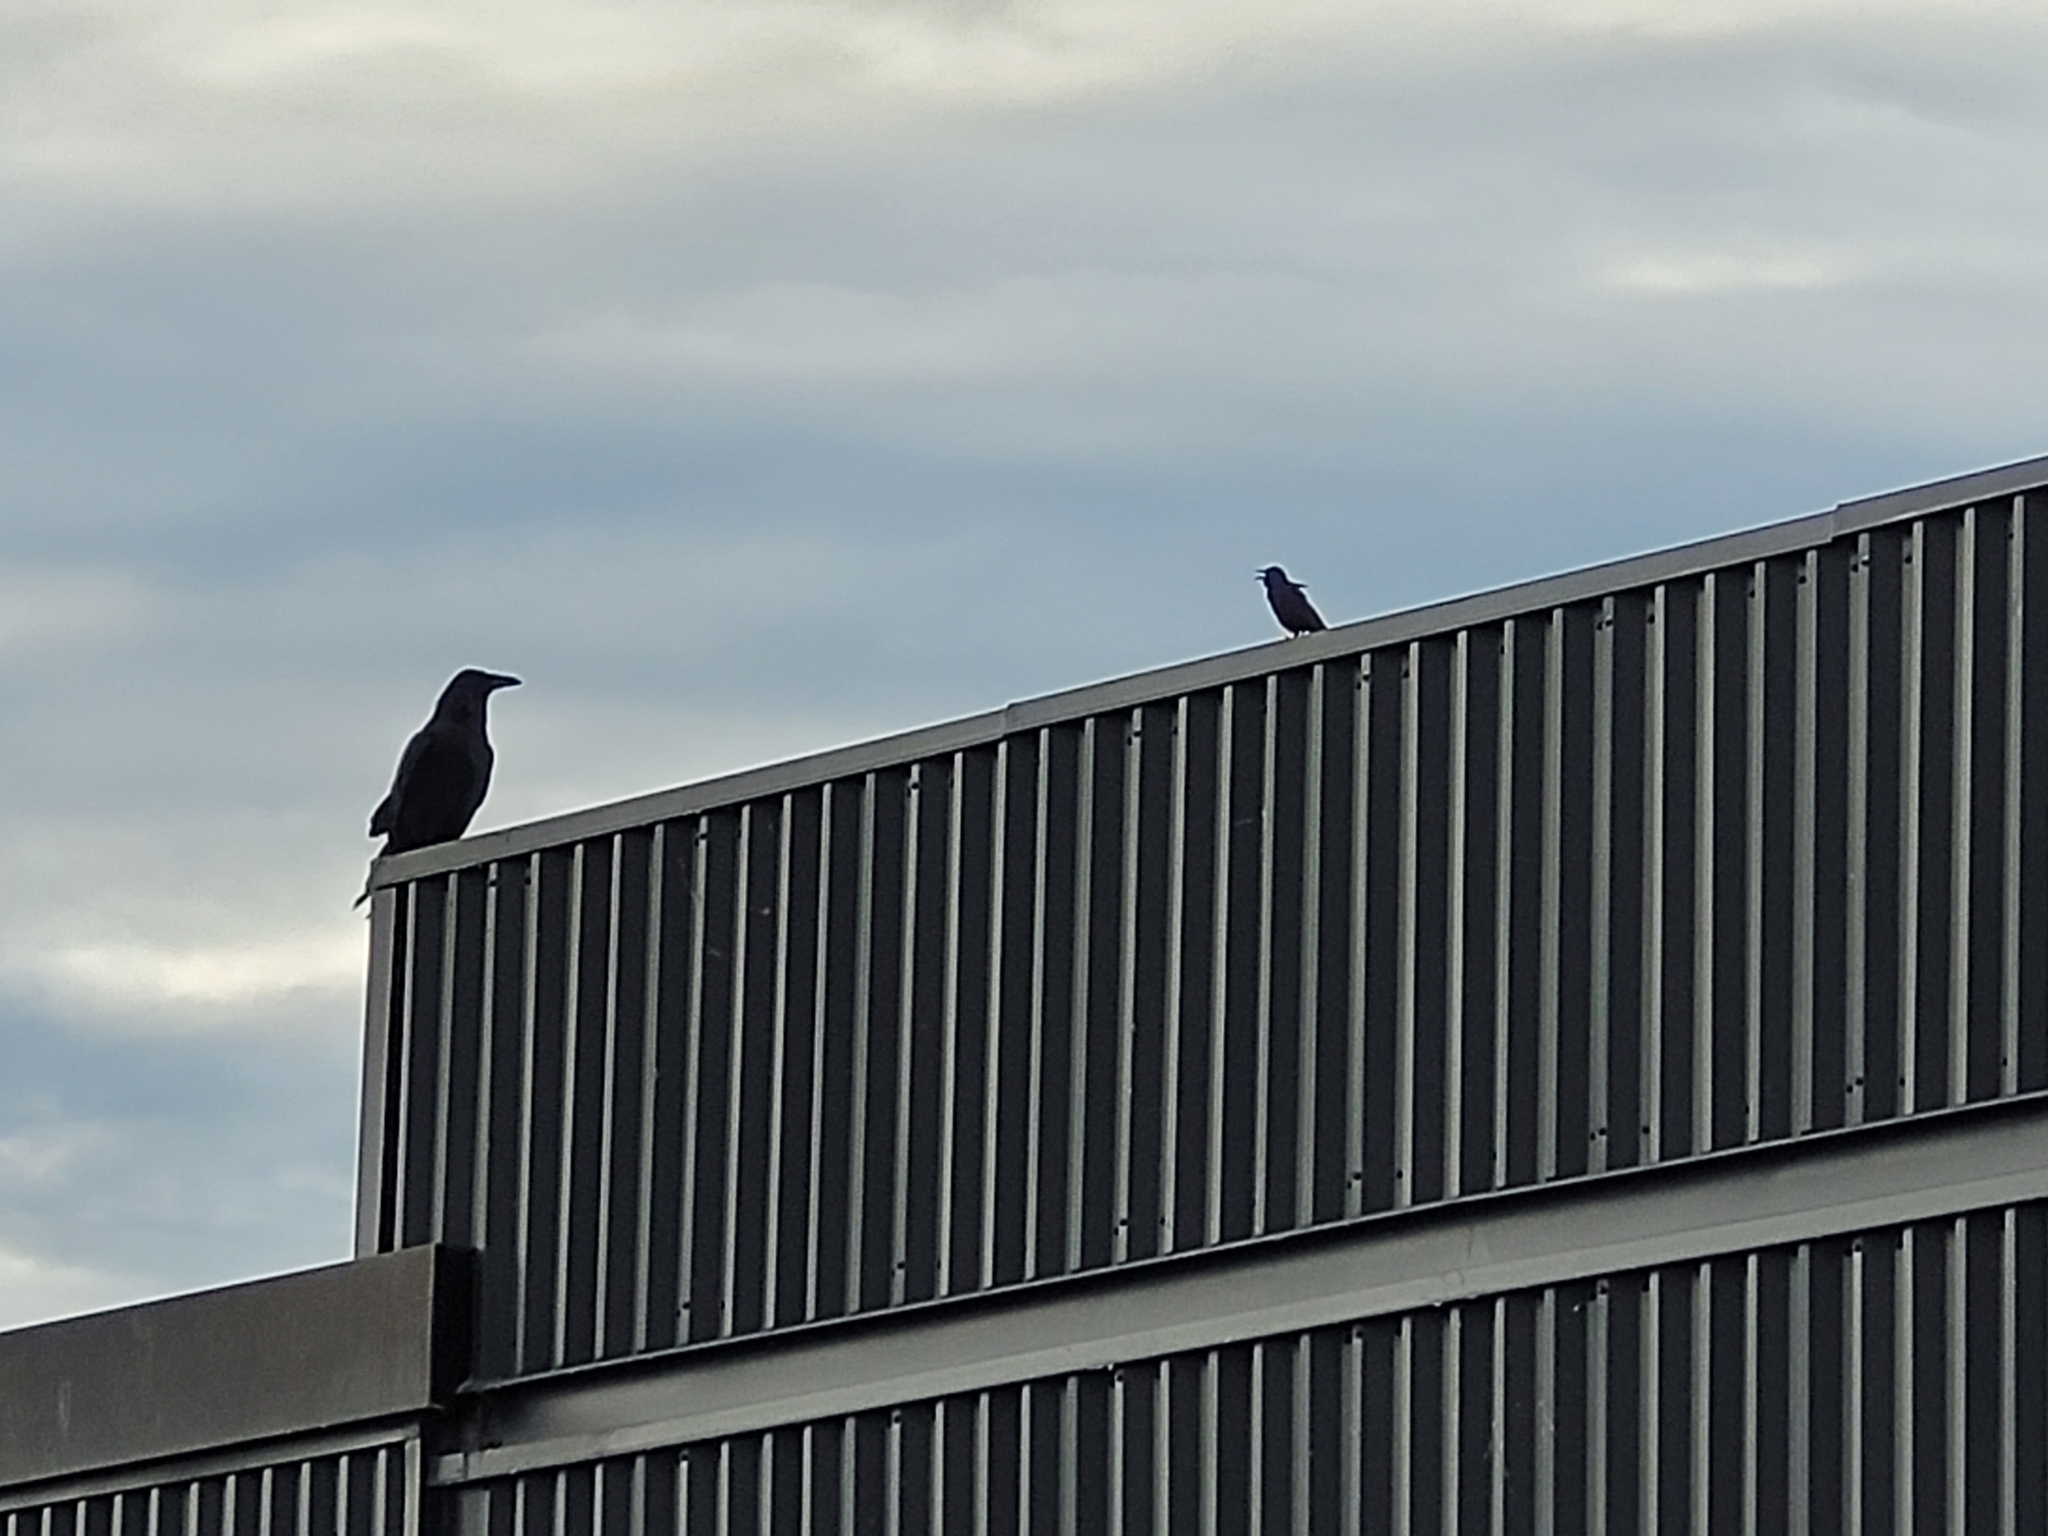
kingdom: Animalia
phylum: Chordata
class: Aves
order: Passeriformes
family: Corvidae
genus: Corvus
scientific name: Corvus corax
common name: Common raven
